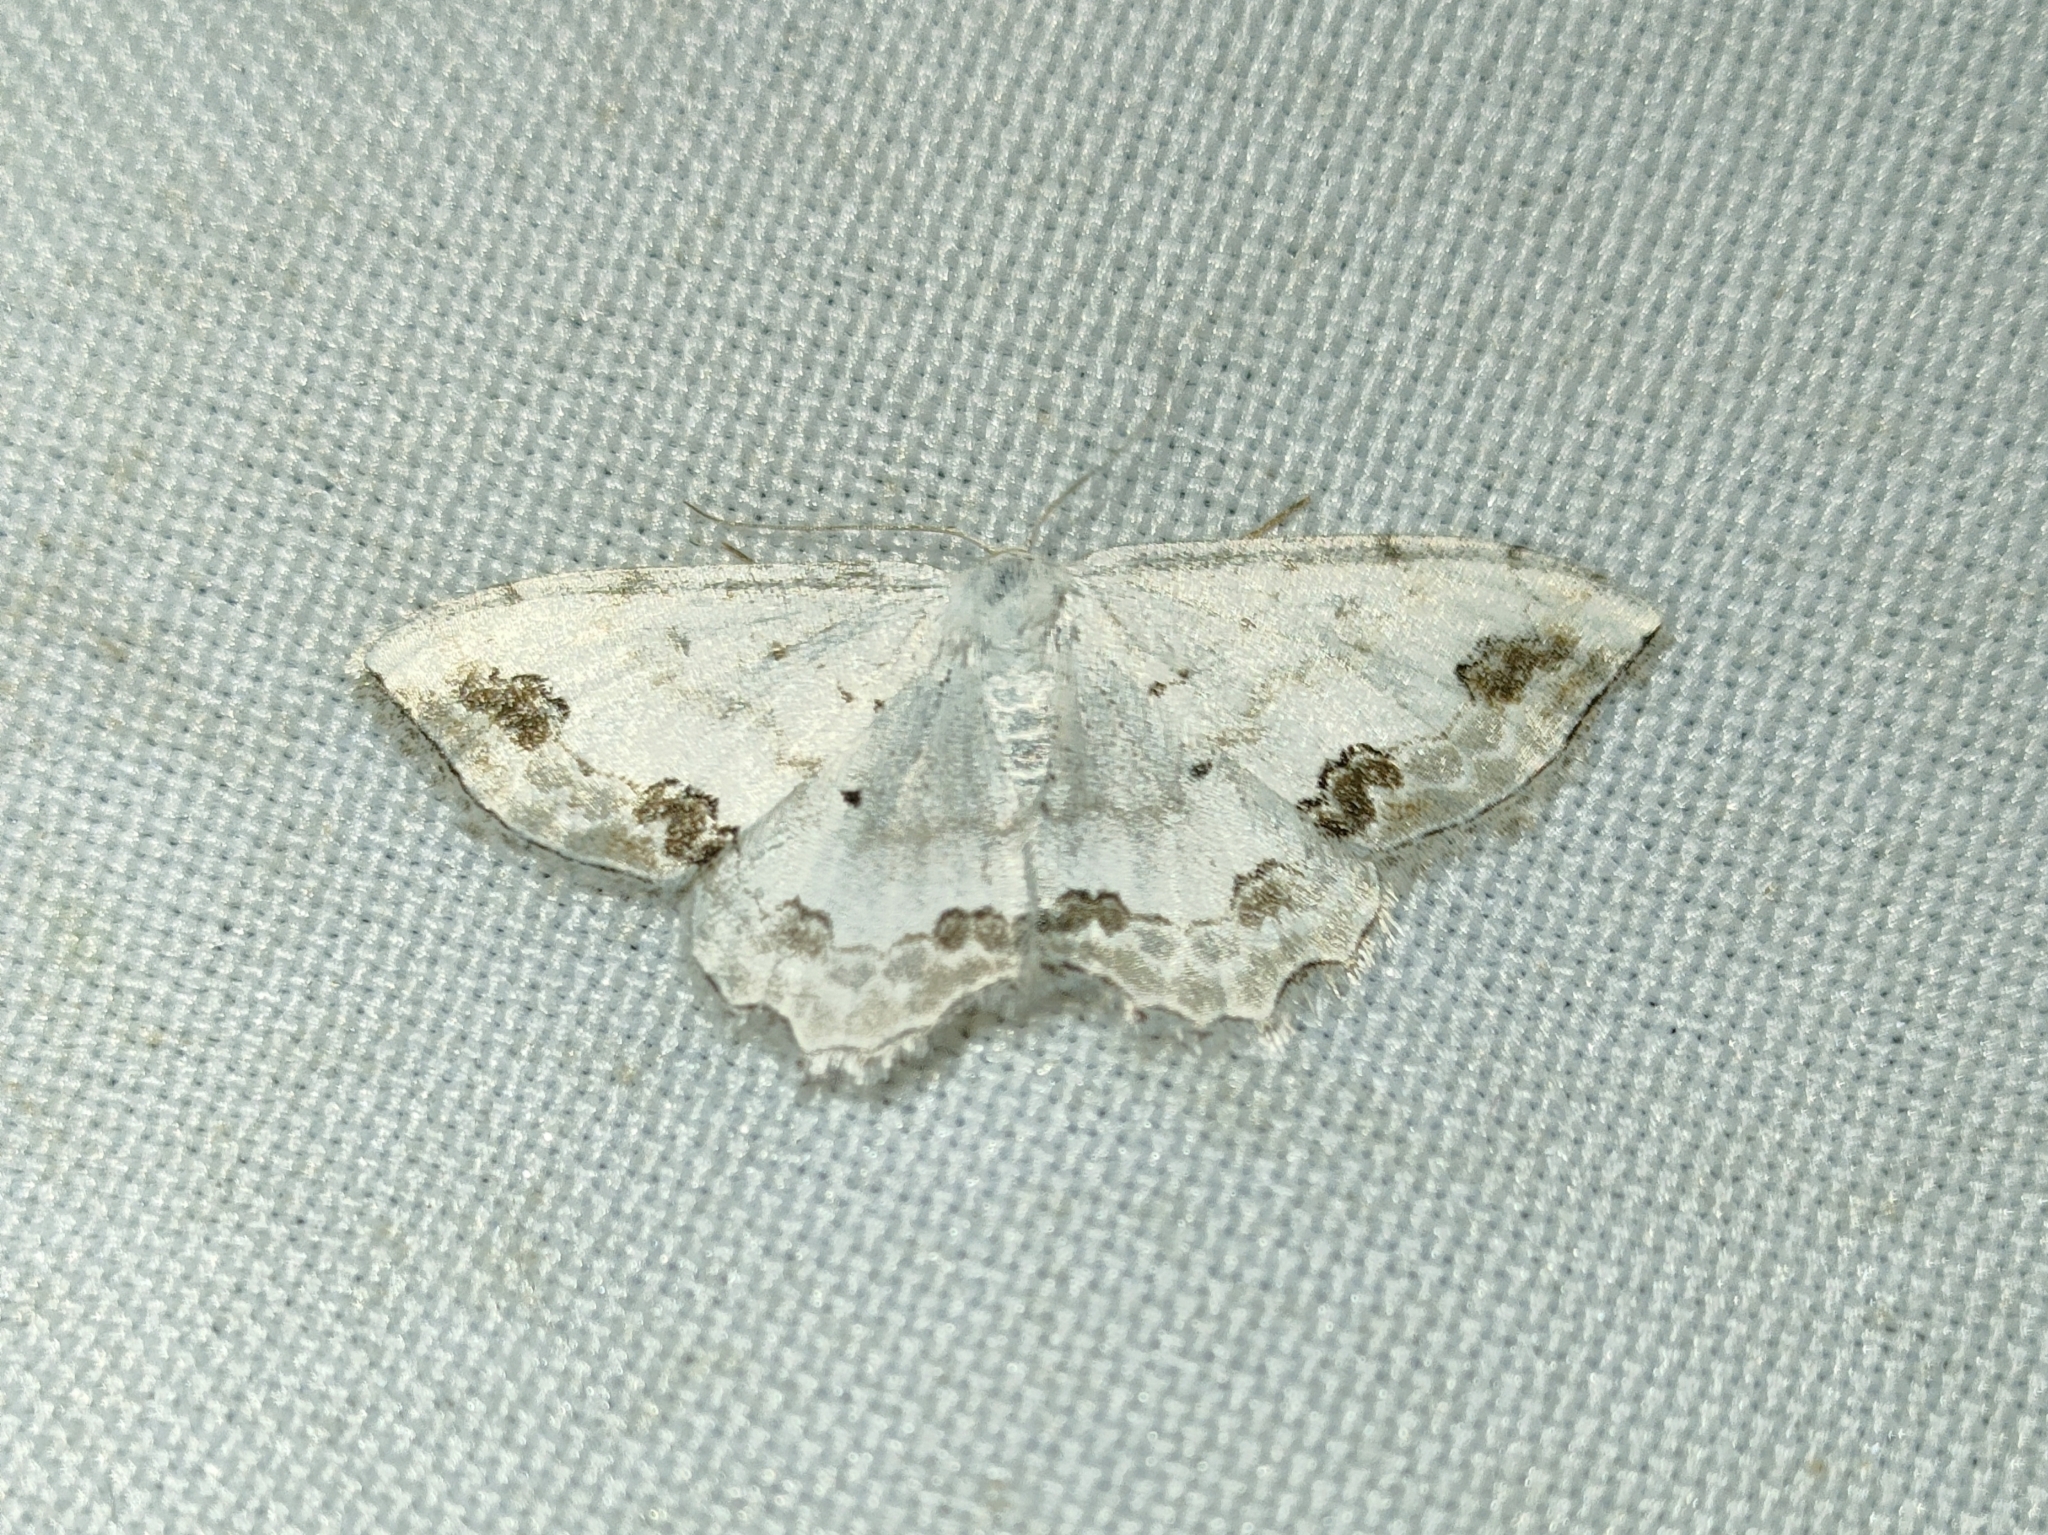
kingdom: Animalia
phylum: Arthropoda
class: Insecta
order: Lepidoptera
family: Geometridae
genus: Scopula
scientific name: Scopula ornata
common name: Lace border
